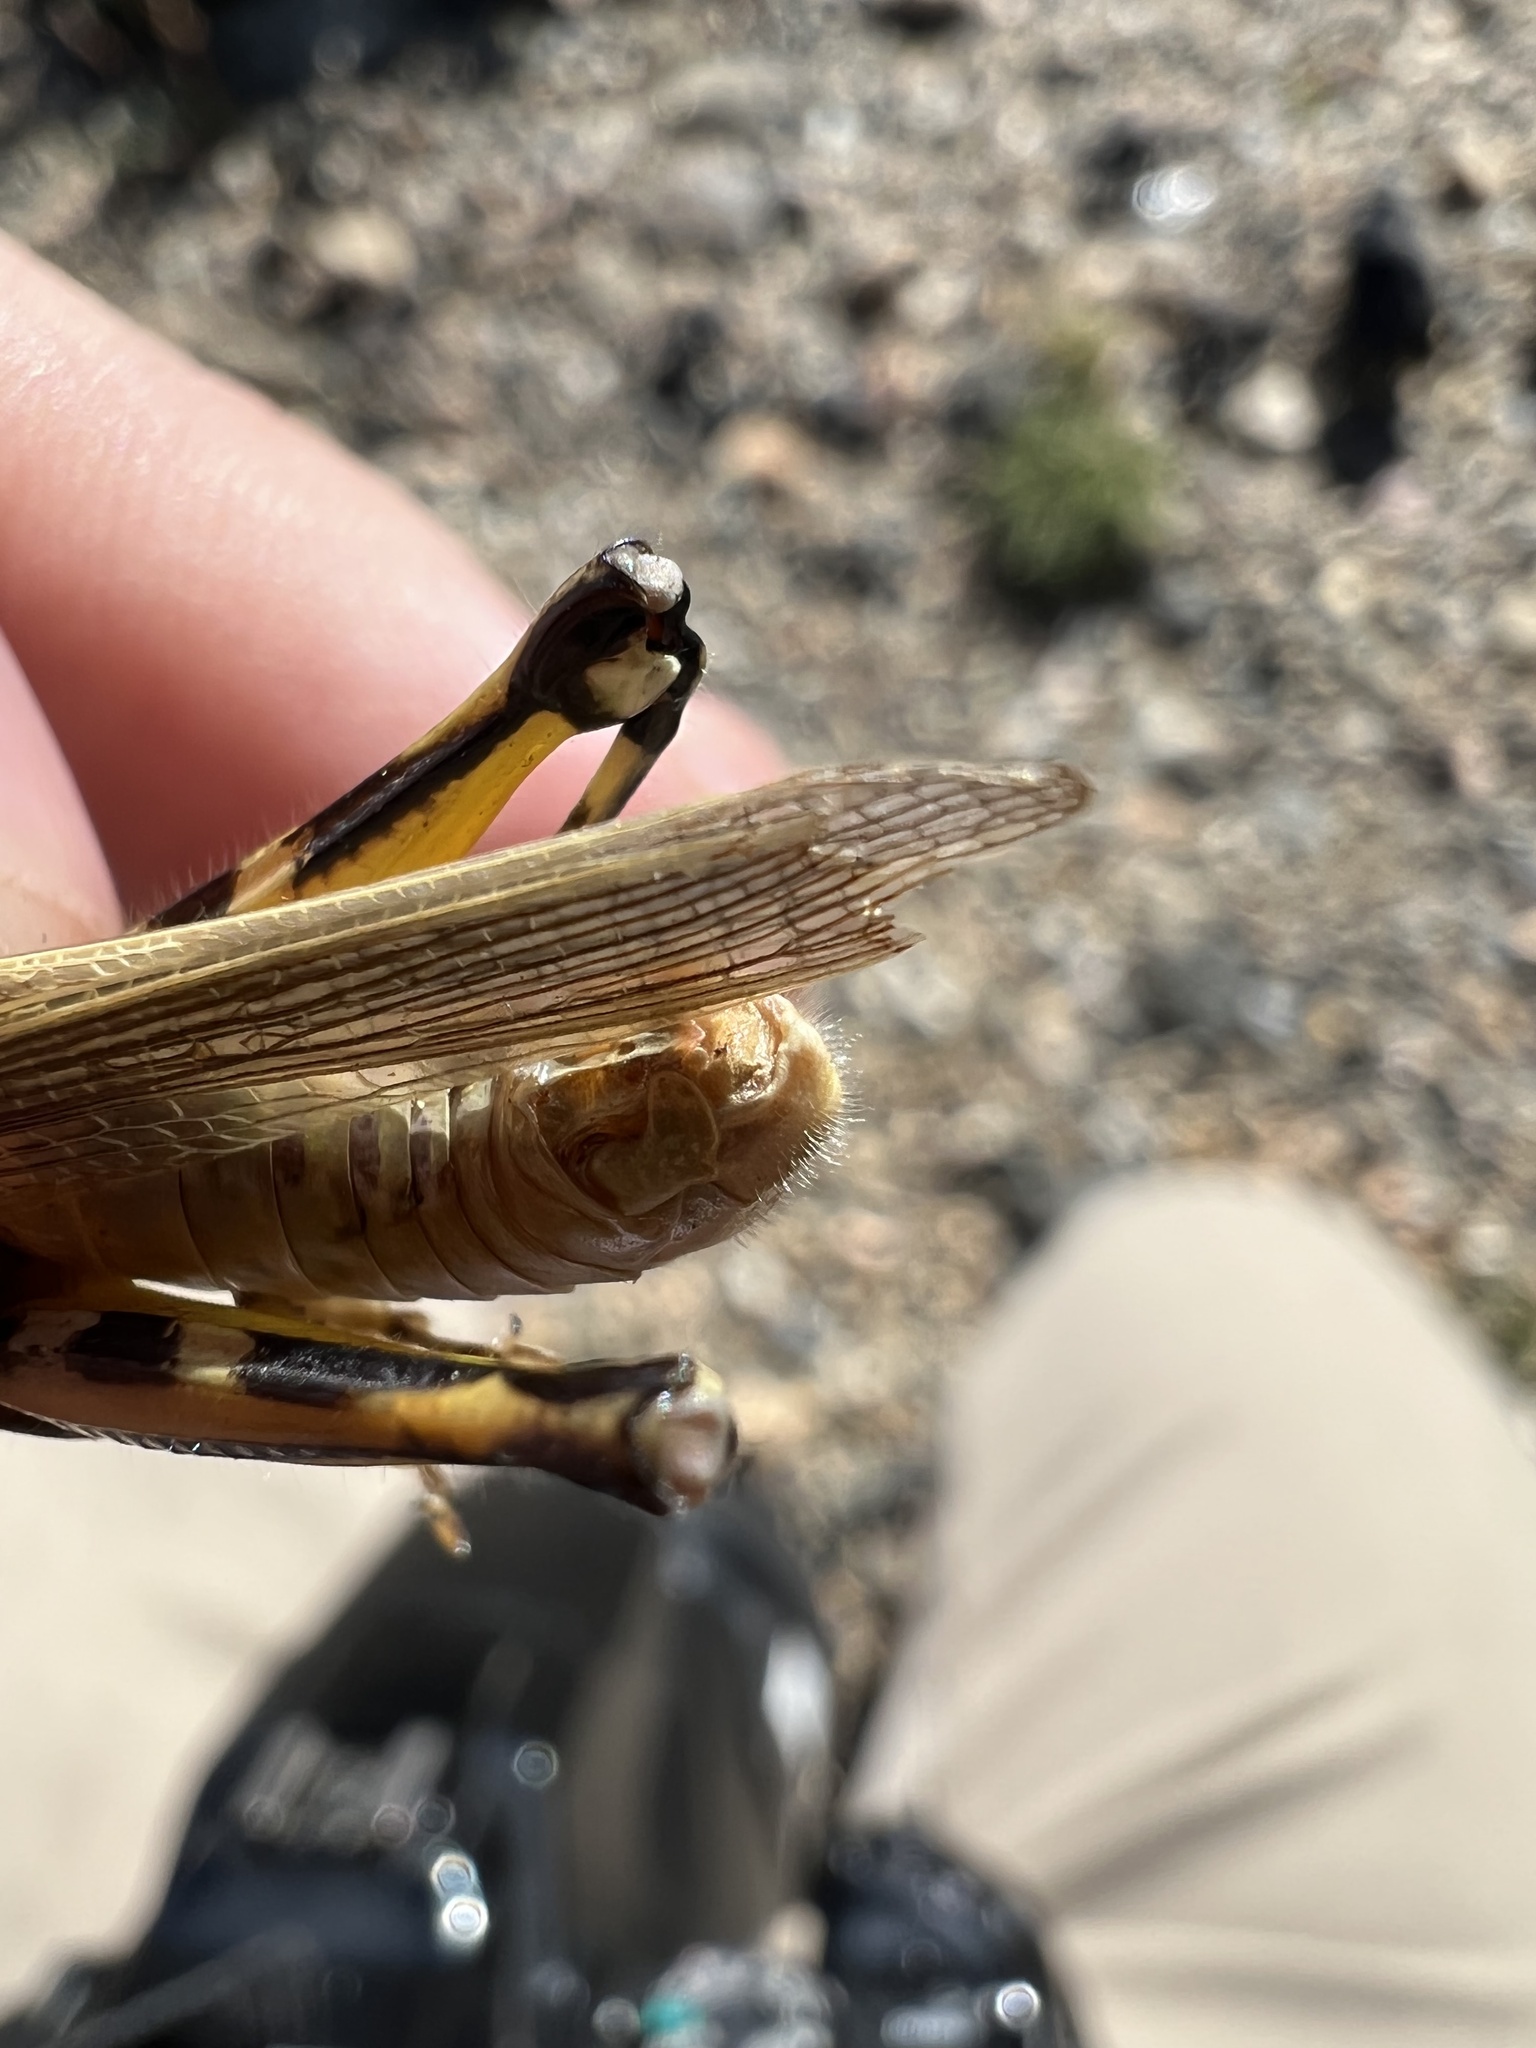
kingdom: Animalia
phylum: Arthropoda
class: Insecta
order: Orthoptera
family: Acrididae
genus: Melanoplus
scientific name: Melanoplus bivittatus
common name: Two-striped grasshopper
